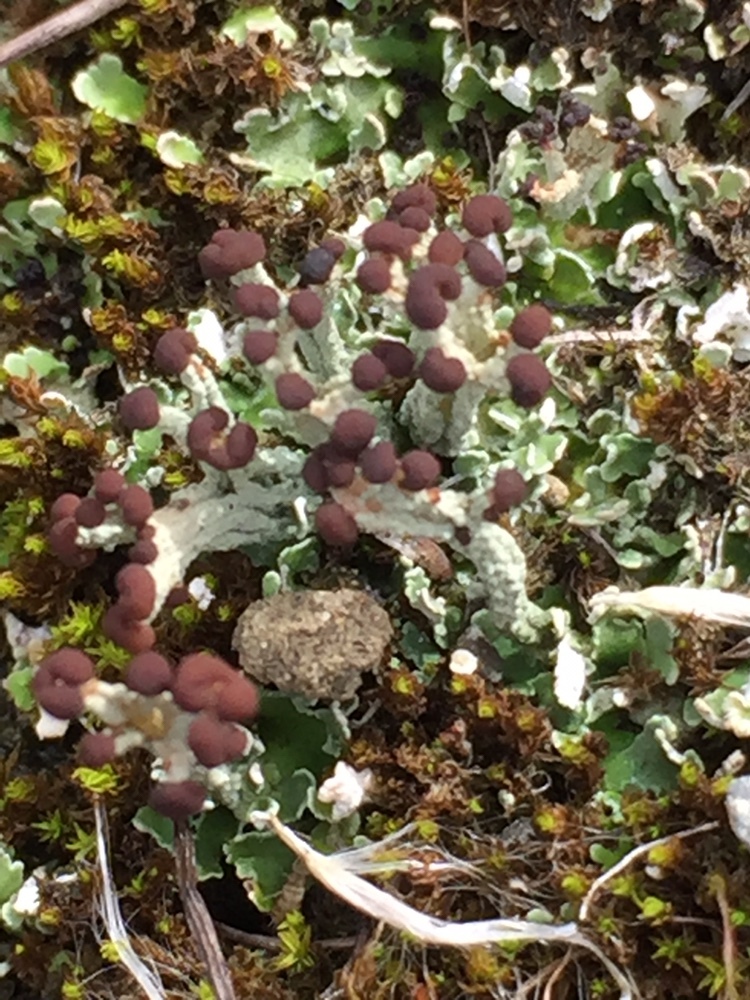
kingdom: Fungi
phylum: Ascomycota
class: Lecanoromycetes
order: Lecanorales
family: Cladoniaceae
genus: Cladonia
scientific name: Cladonia enantia
